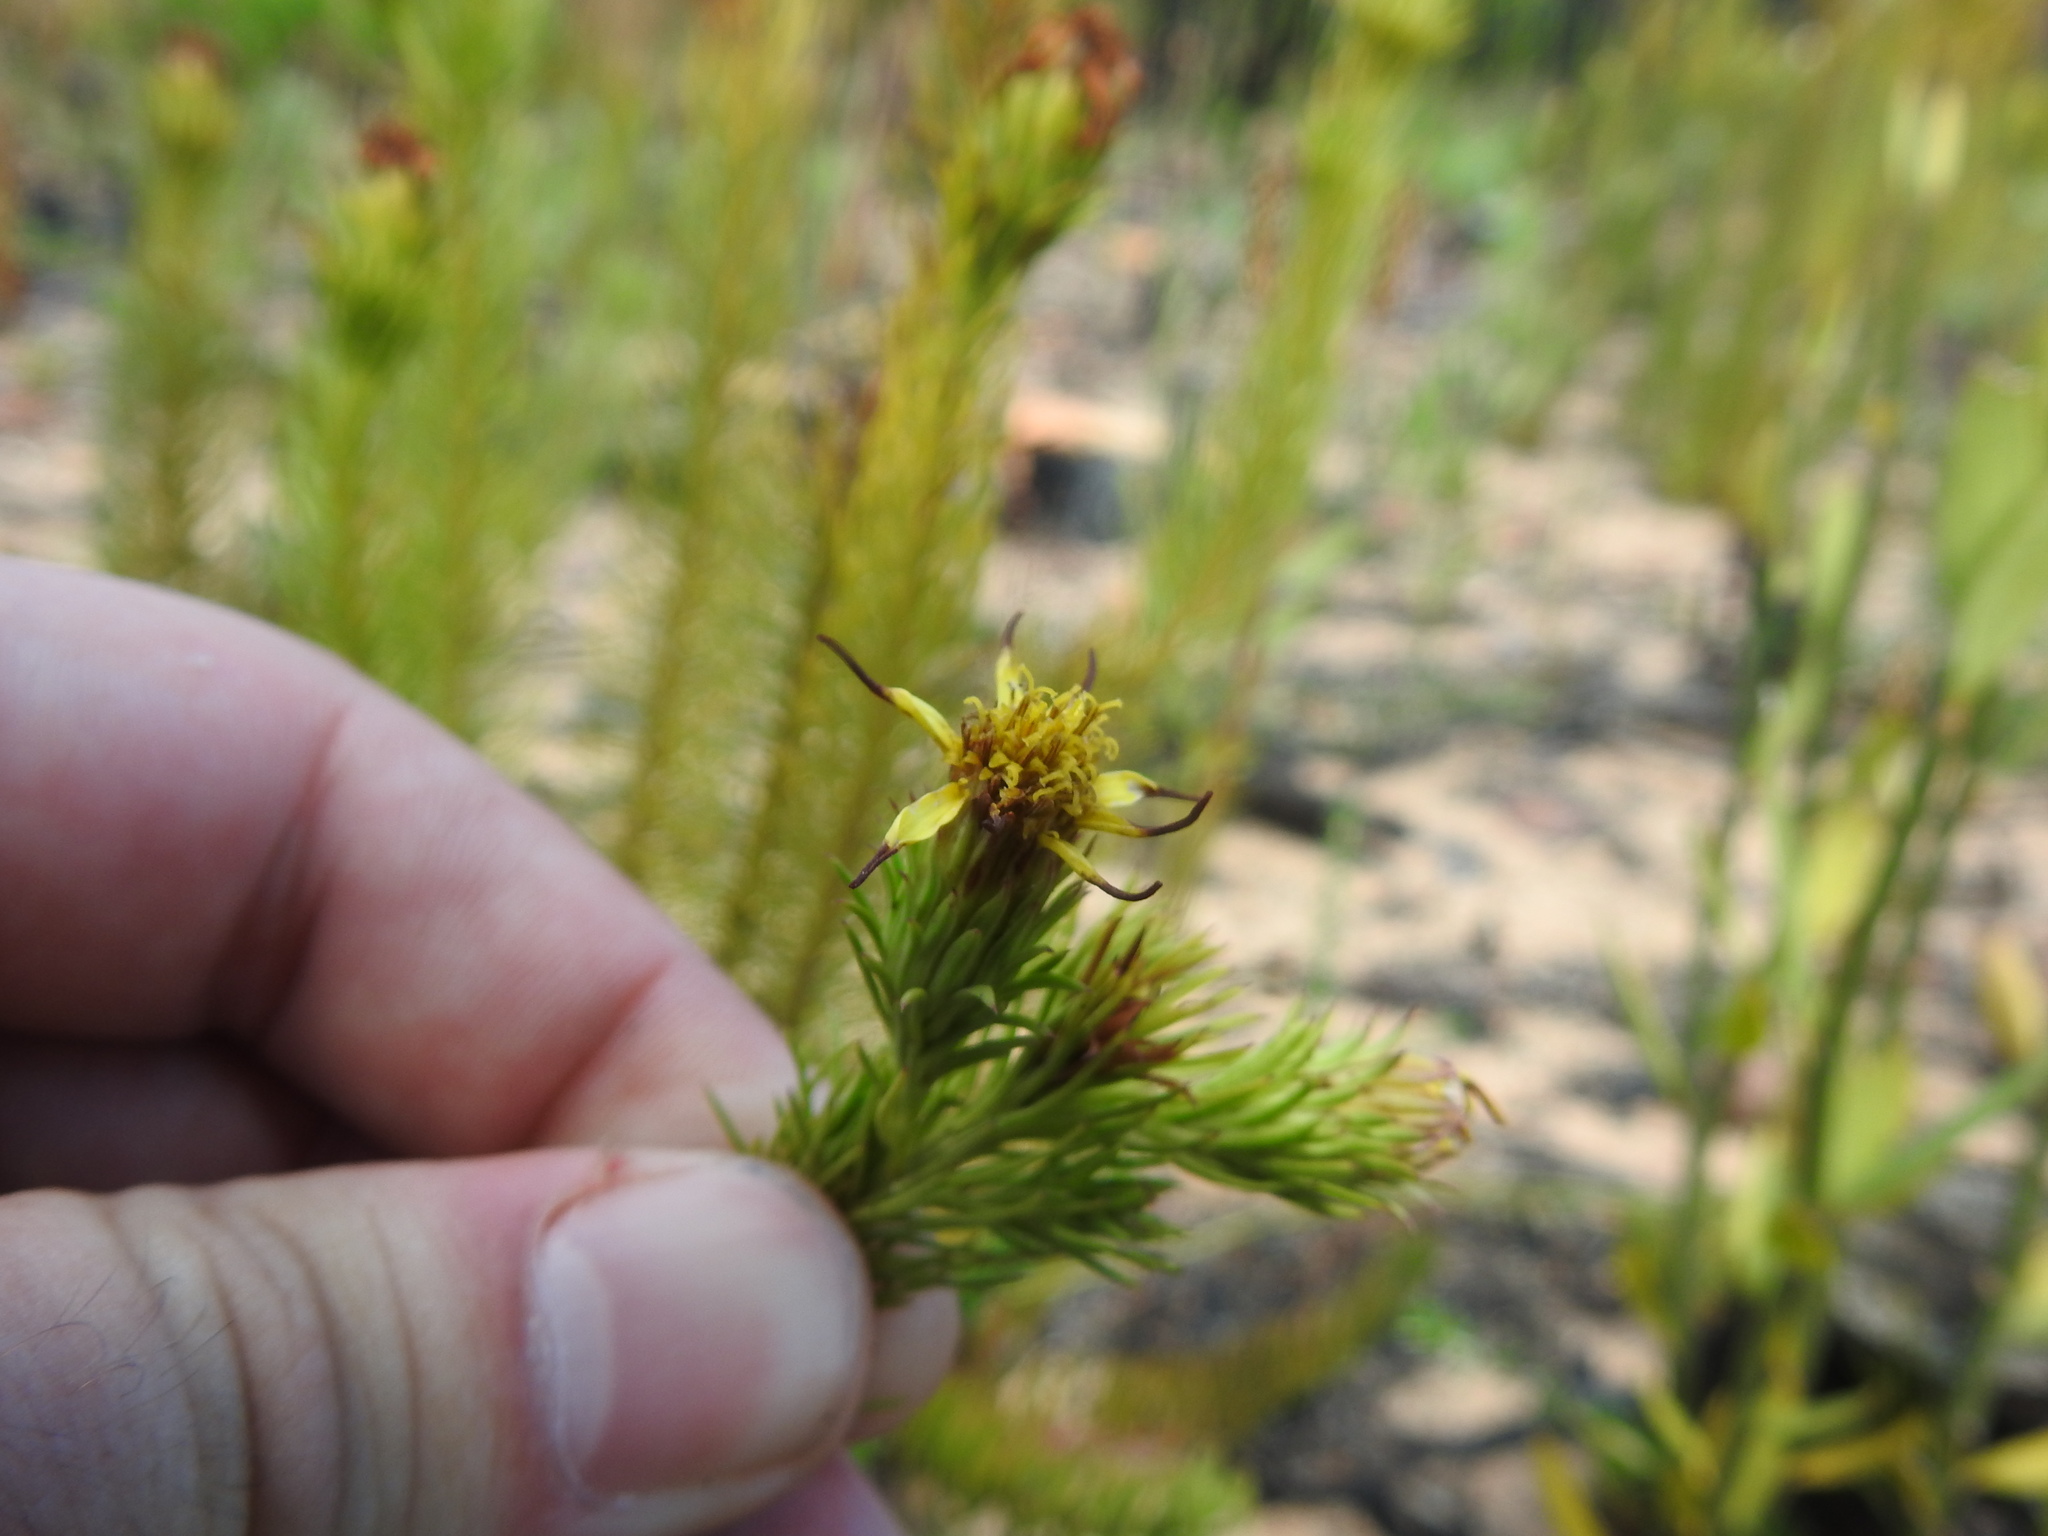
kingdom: Plantae
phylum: Tracheophyta
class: Magnoliopsida
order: Asterales
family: Asteraceae
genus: Senecio
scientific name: Senecio pinifolius
